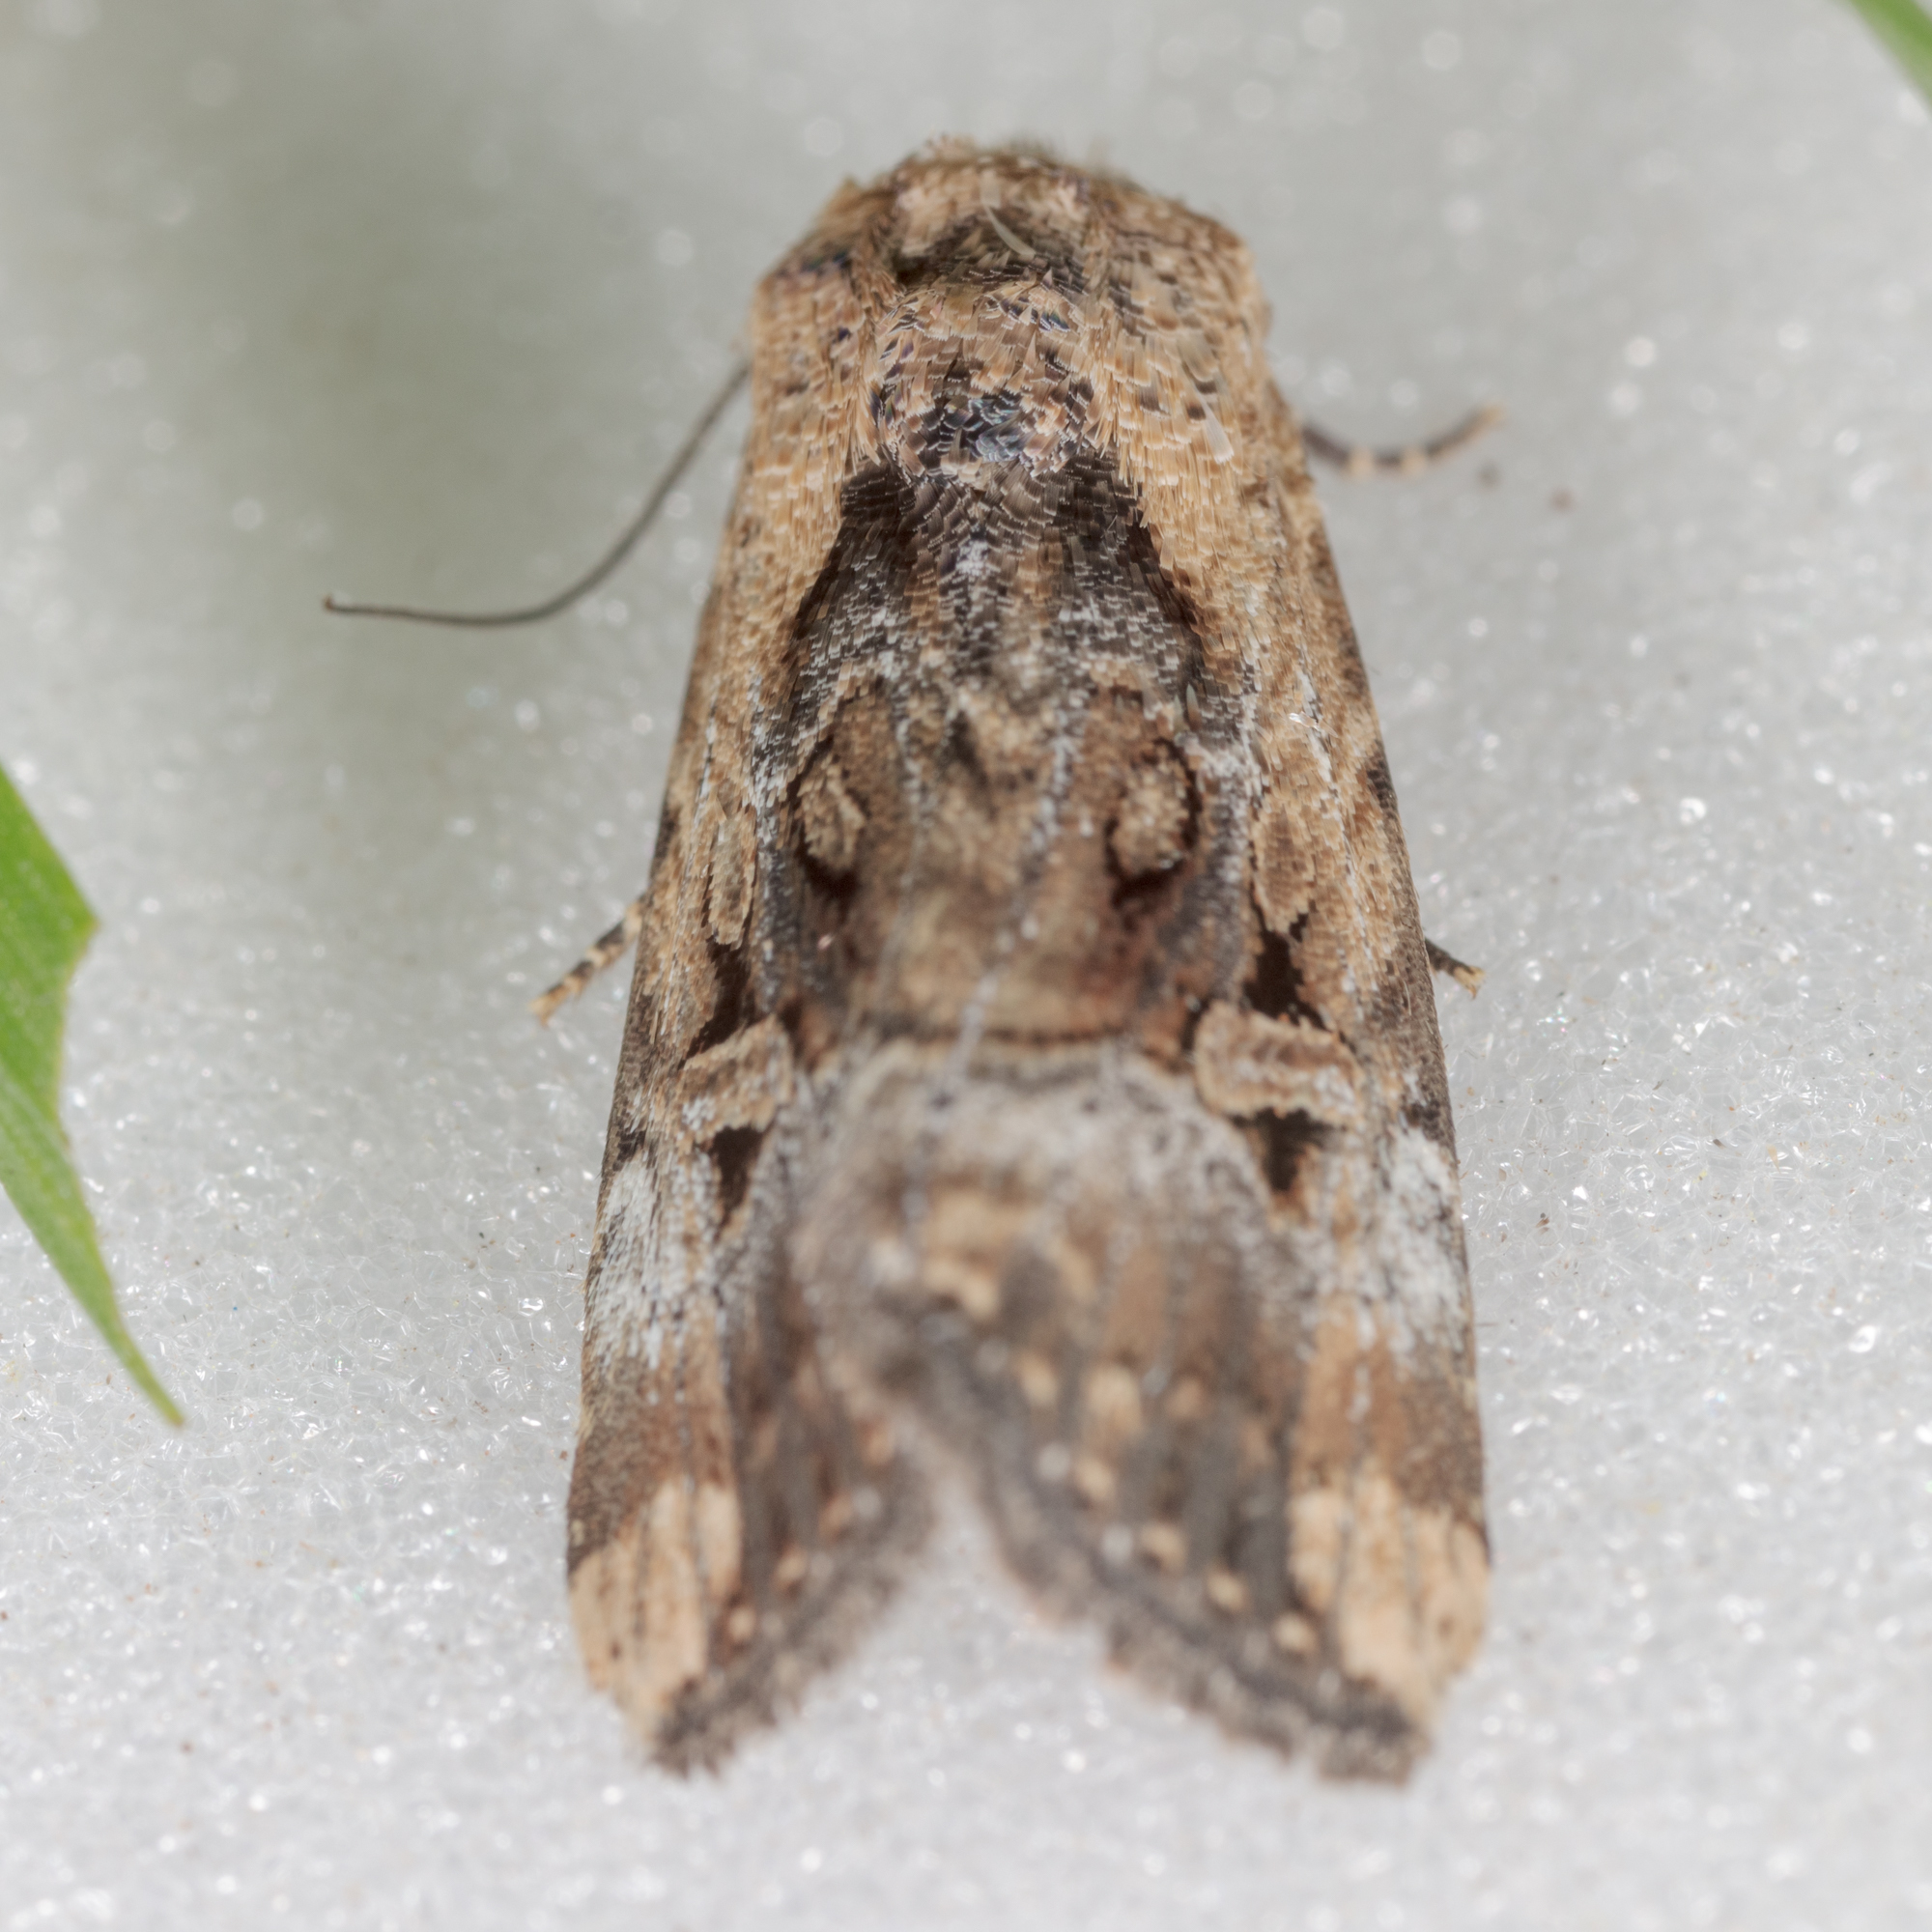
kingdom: Animalia
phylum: Arthropoda
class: Insecta
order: Lepidoptera
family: Noctuidae
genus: Elaphria
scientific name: Elaphria chalcedonia
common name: Chalcedony midget
